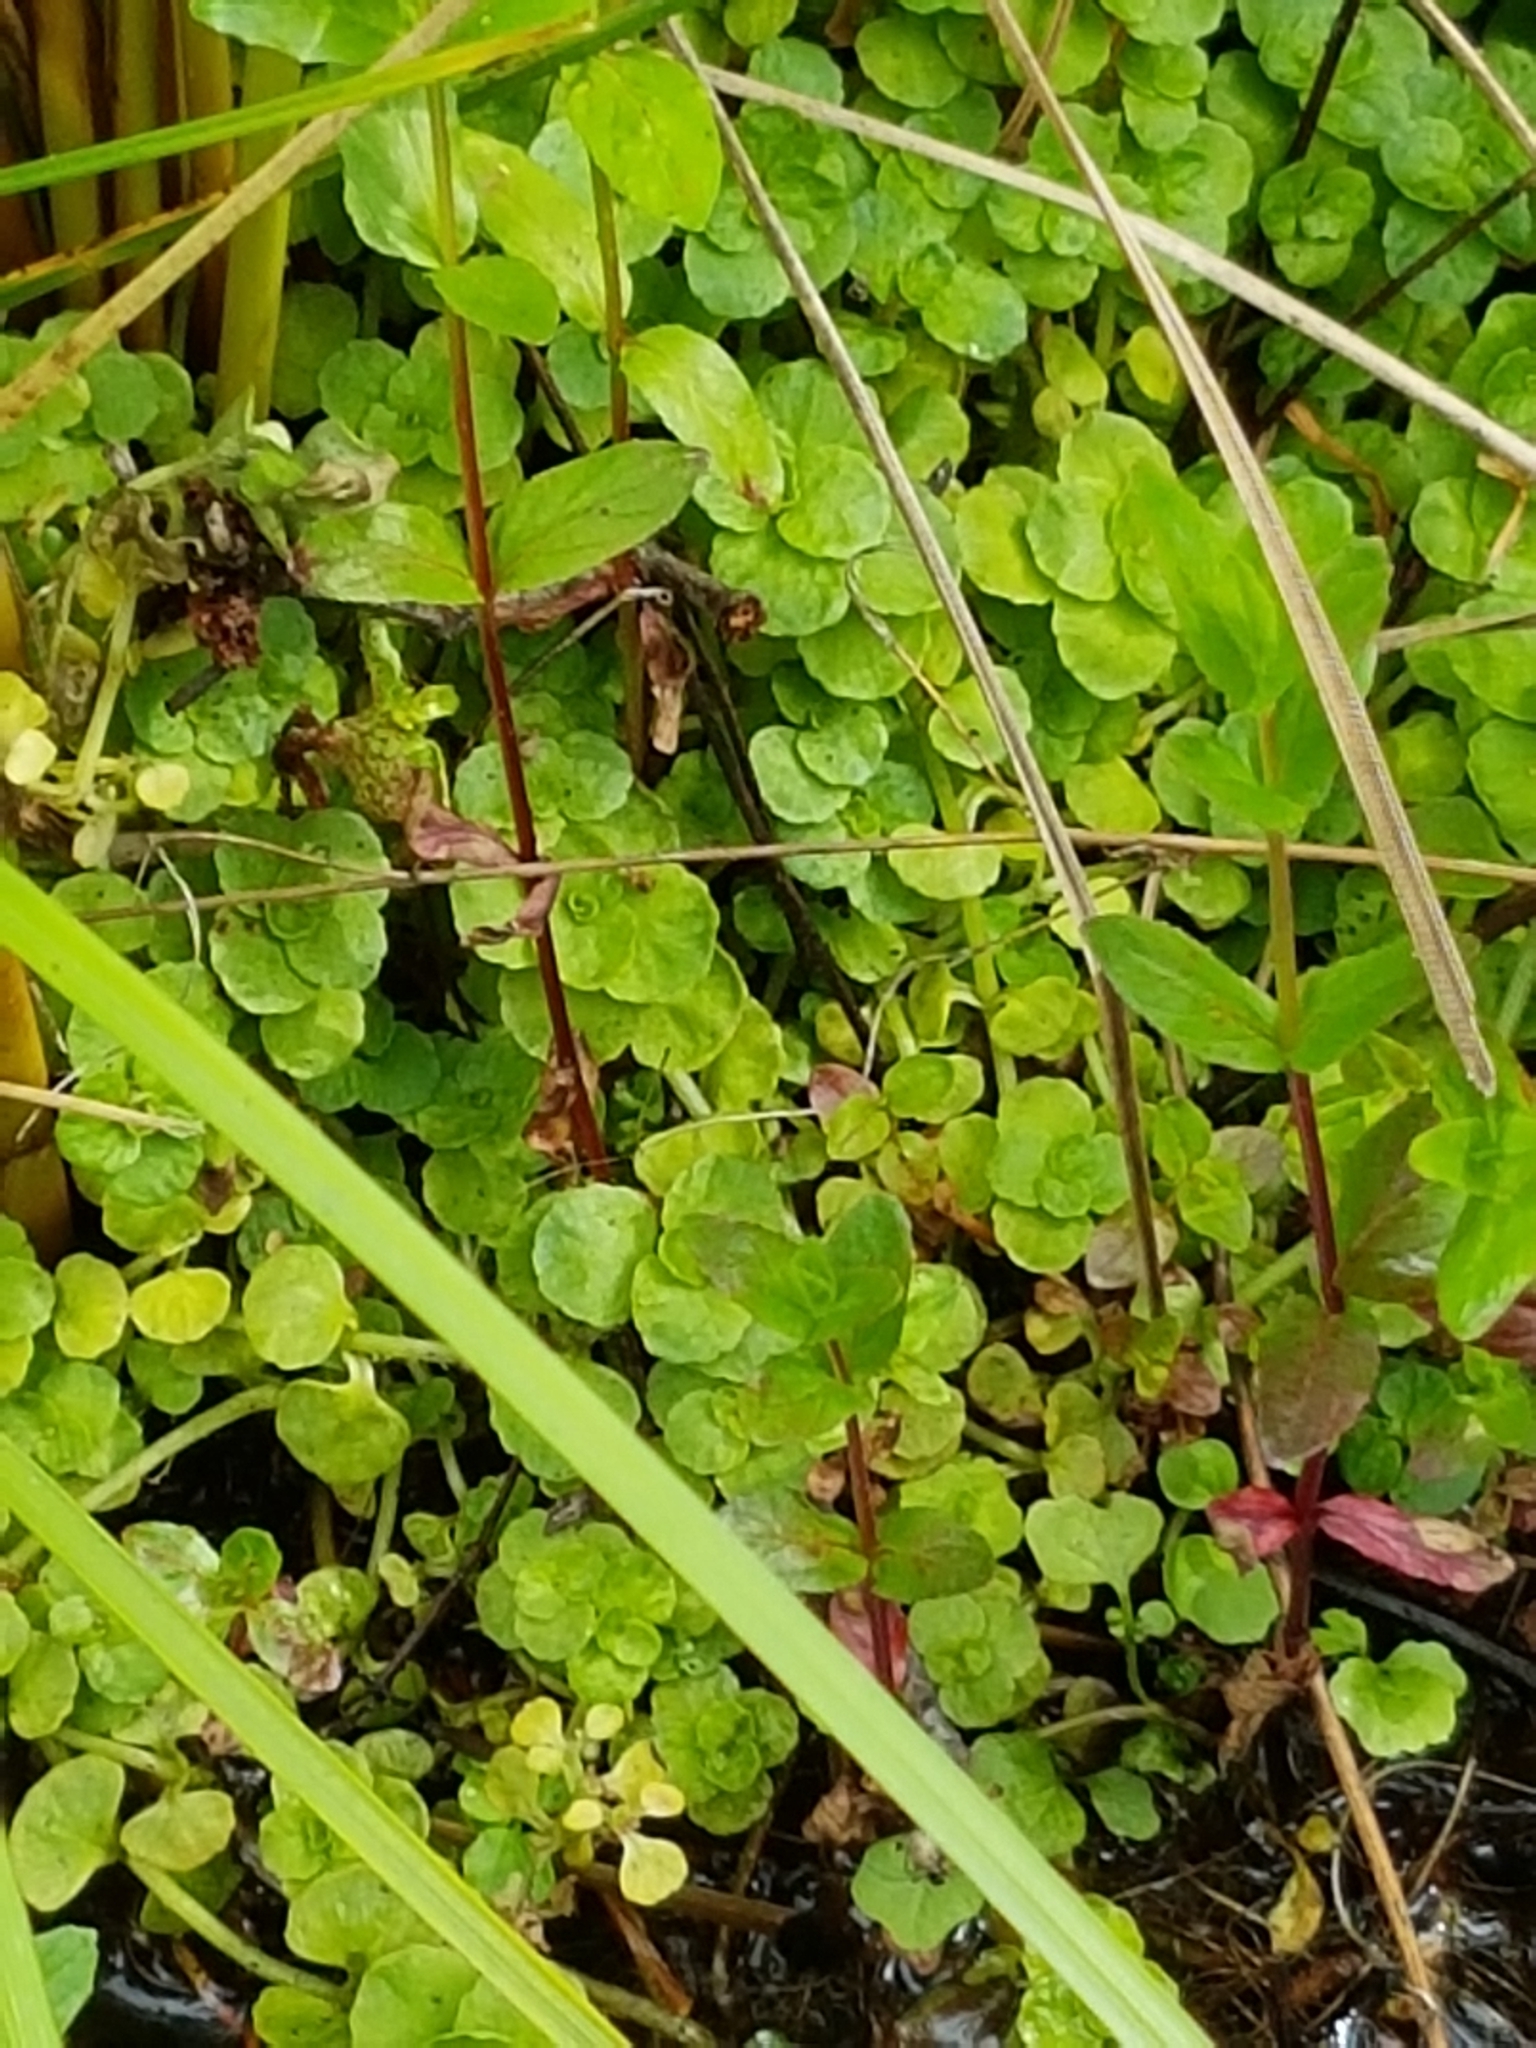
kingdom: Plantae
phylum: Tracheophyta
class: Magnoliopsida
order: Saxifragales
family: Saxifragaceae
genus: Chrysosplenium
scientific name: Chrysosplenium oppositifolium
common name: Opposite-leaved golden-saxifrage
